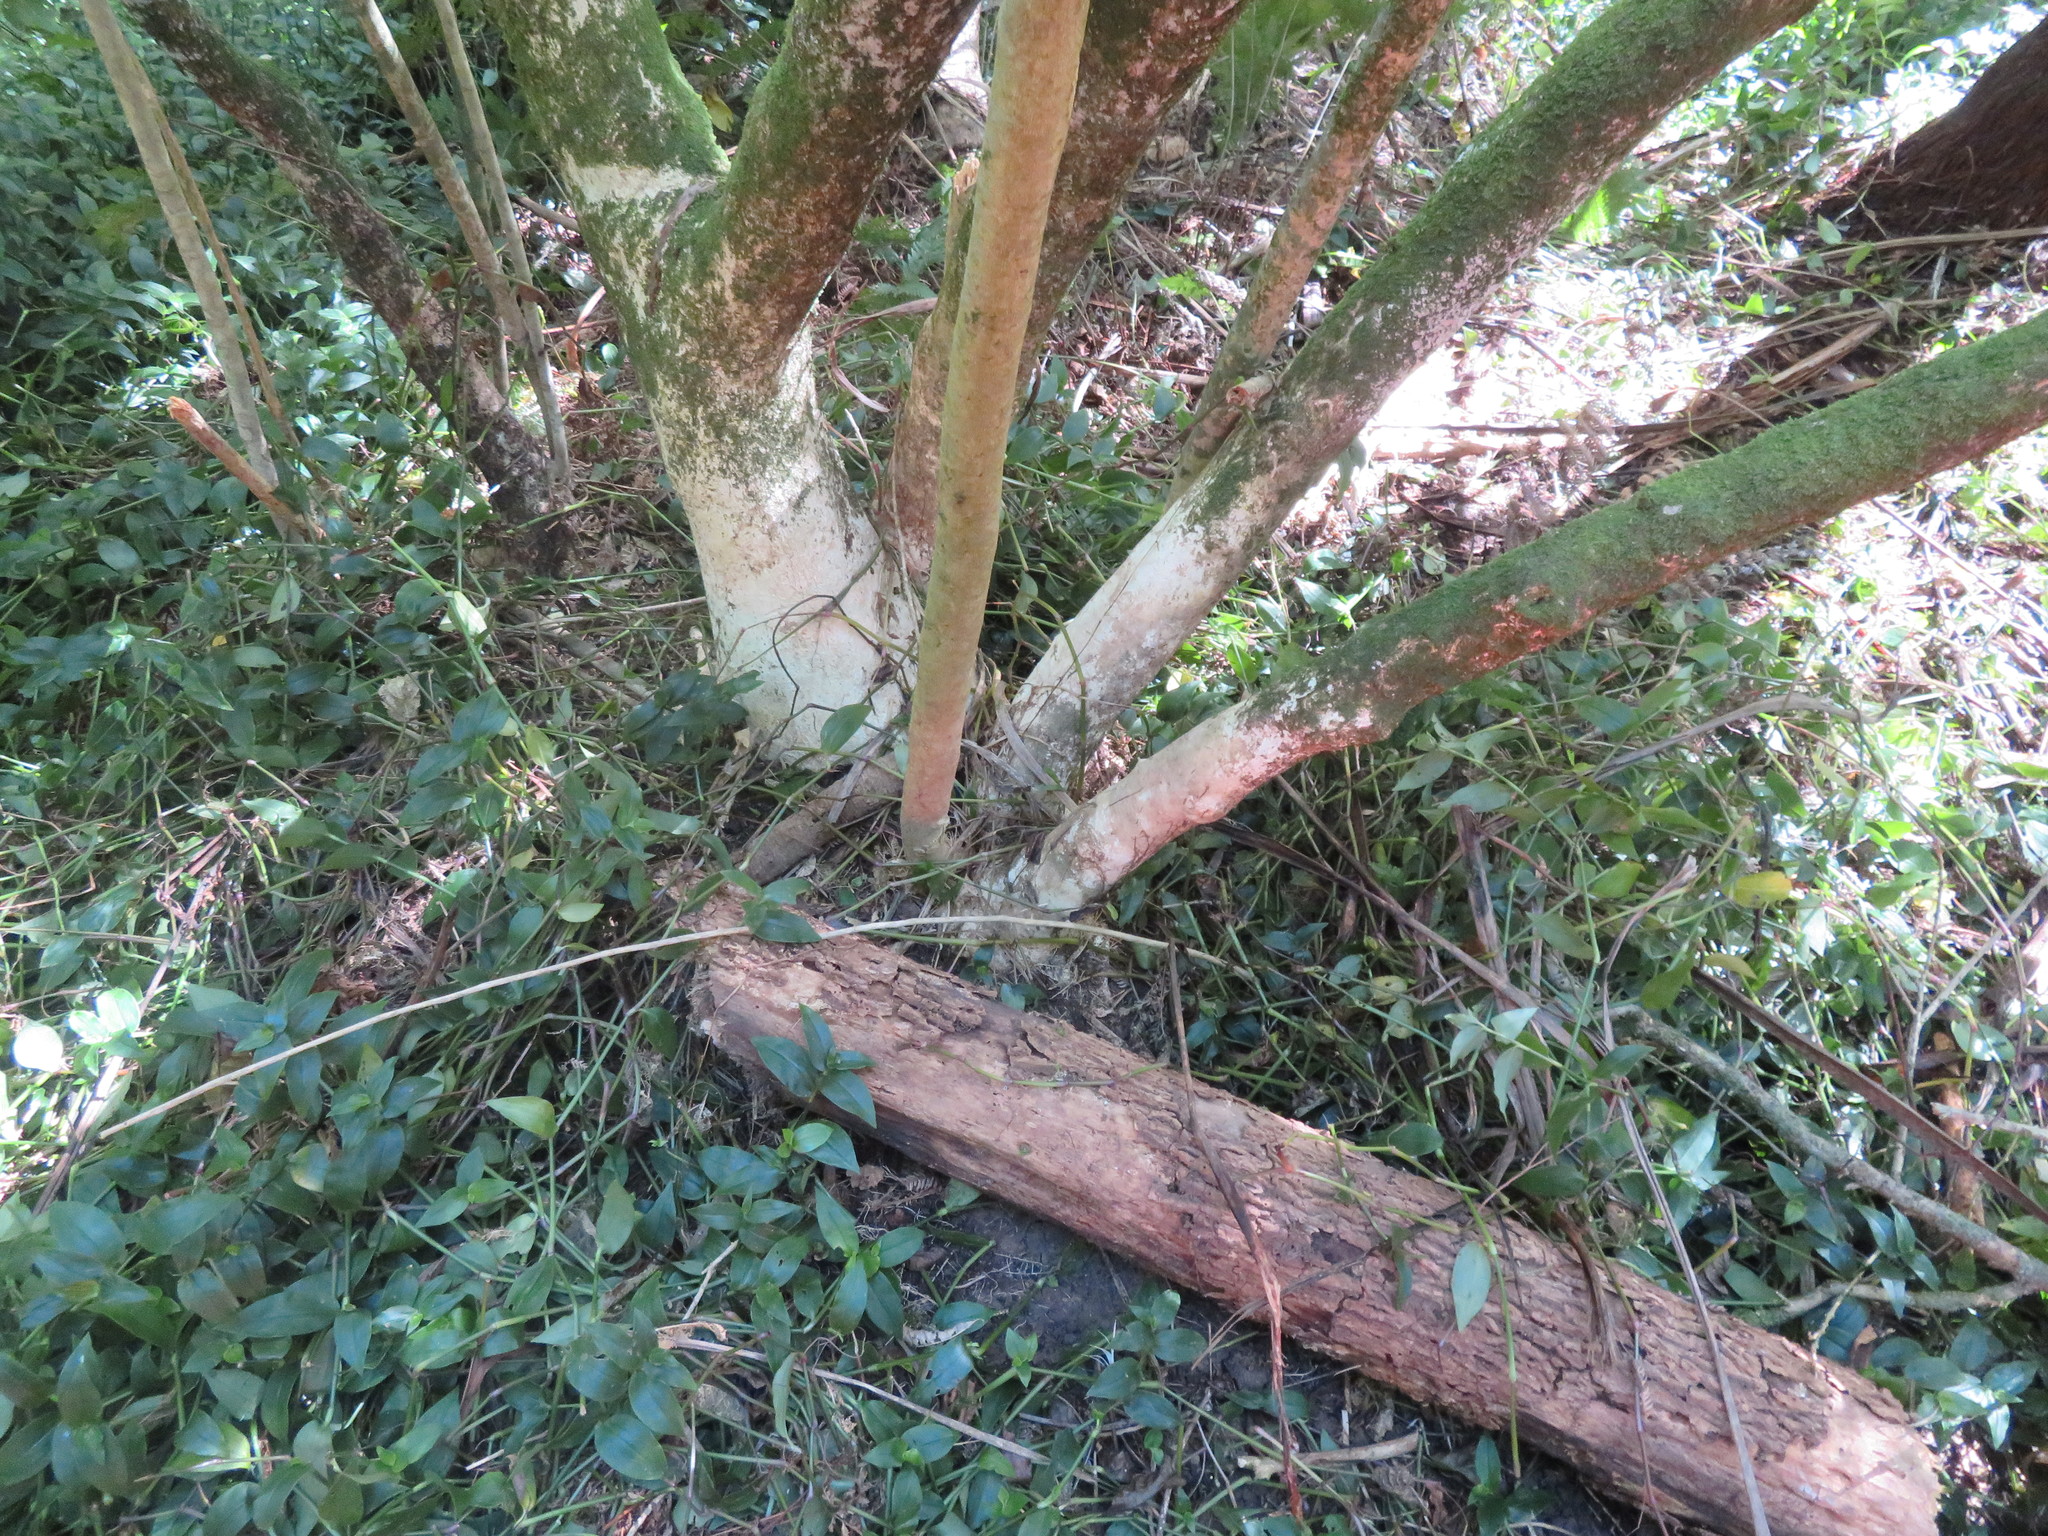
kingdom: Plantae
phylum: Tracheophyta
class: Liliopsida
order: Asparagales
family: Asparagaceae
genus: Cordyline
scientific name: Cordyline australis
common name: Cabbage-palm
